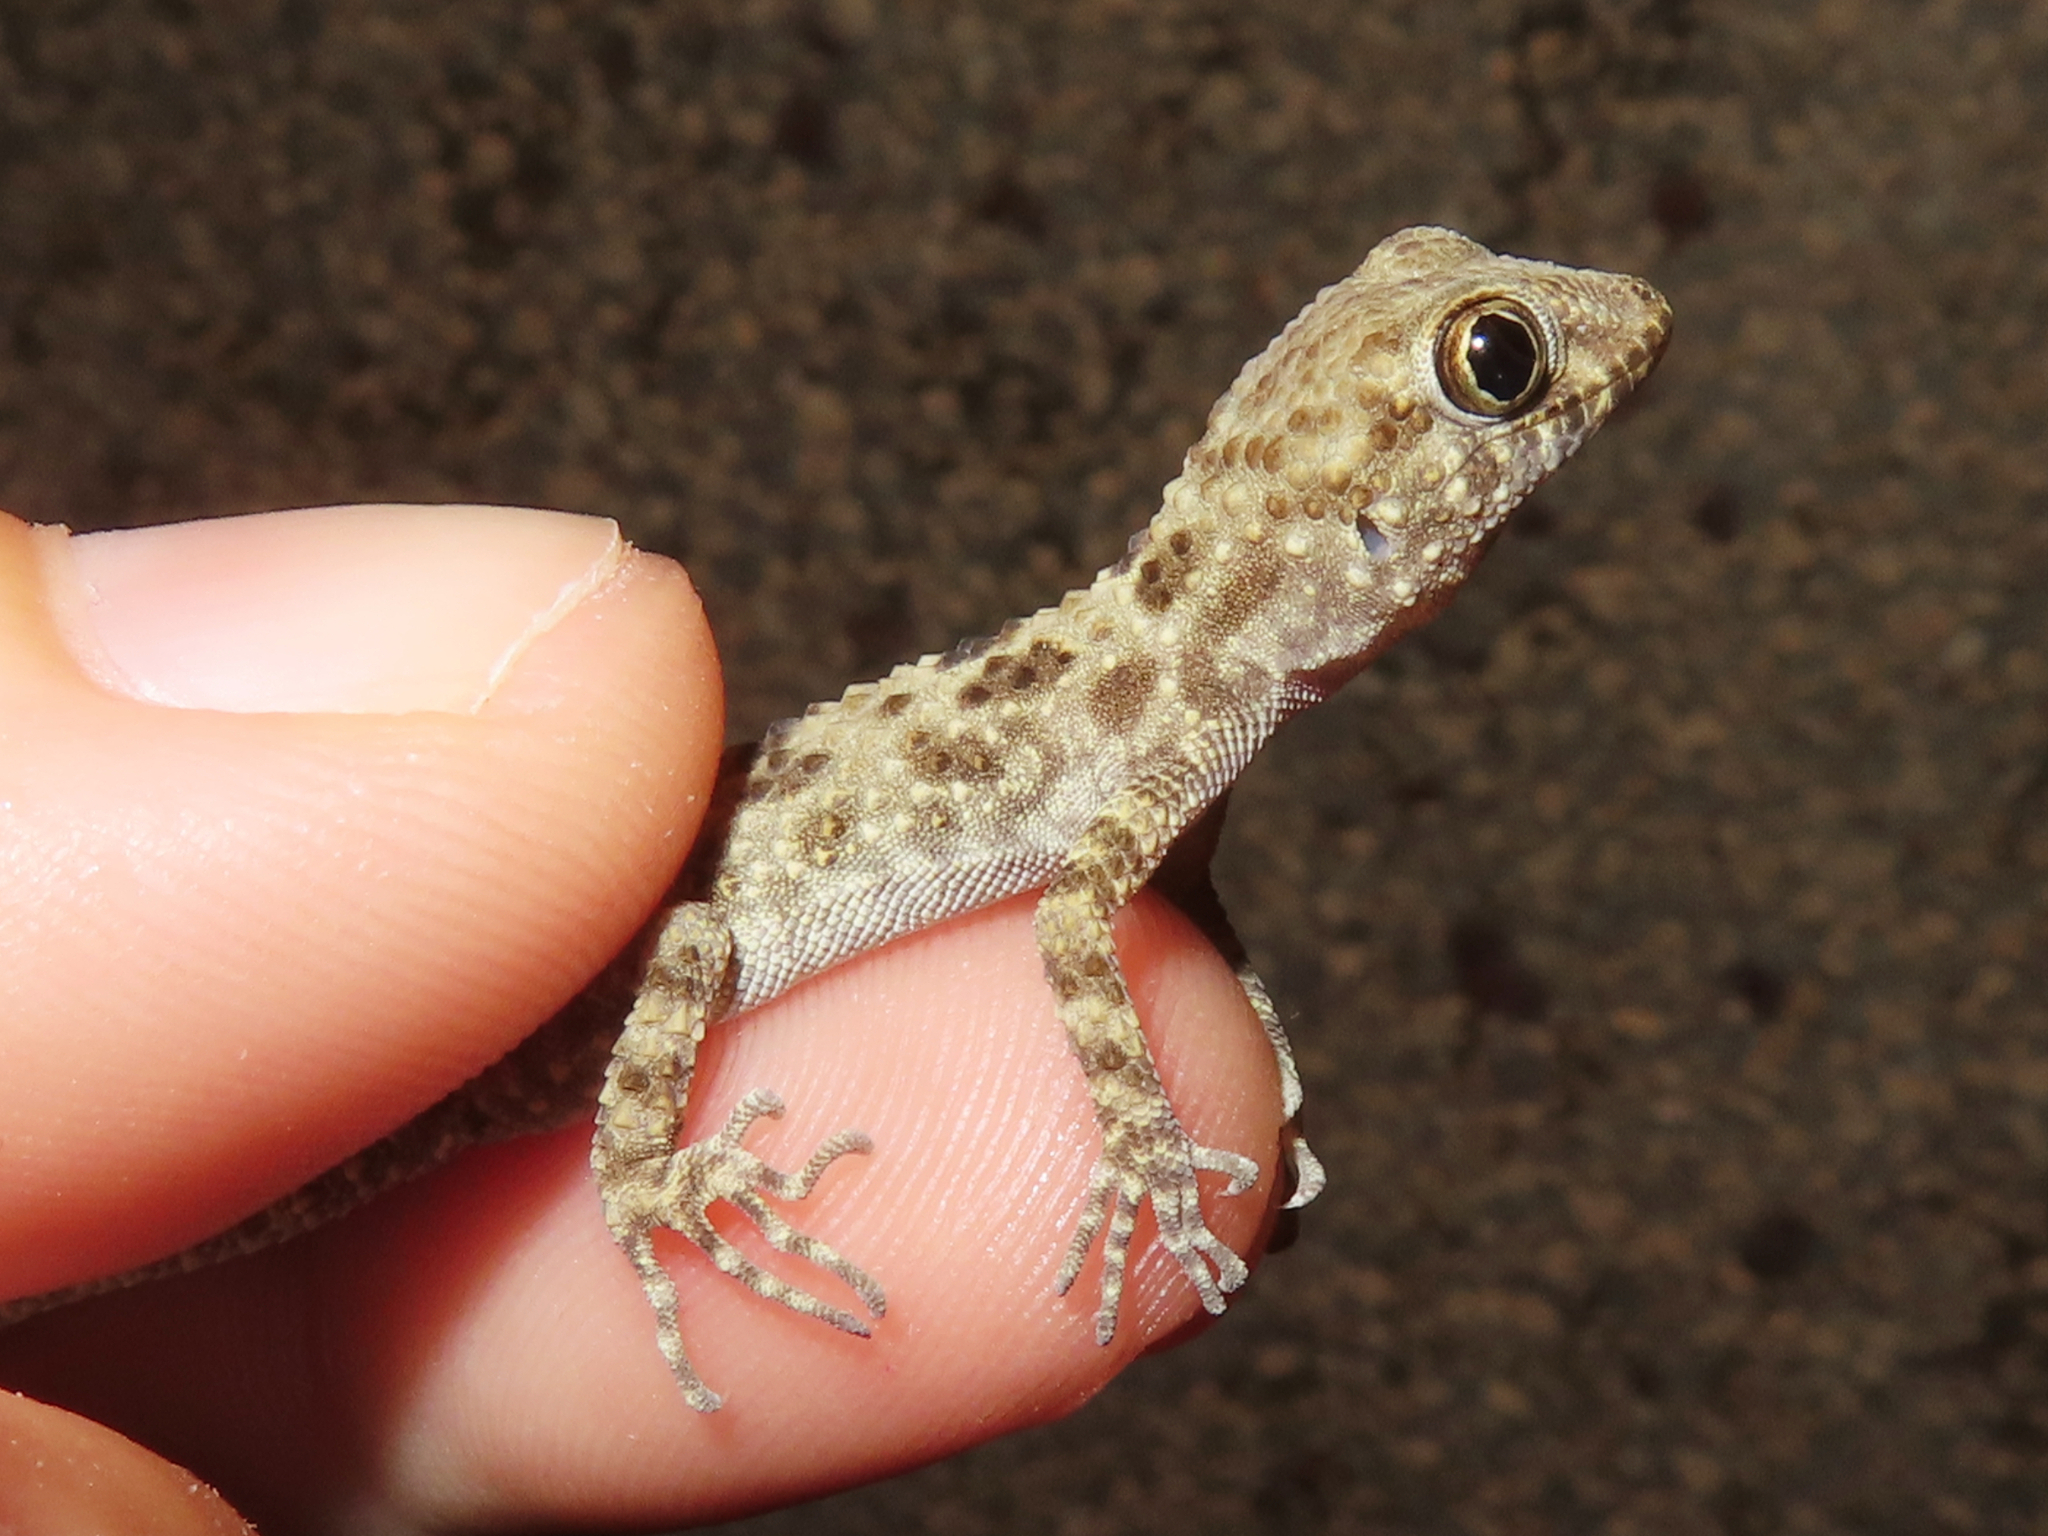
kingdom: Animalia
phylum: Chordata
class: Squamata
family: Gekkonidae
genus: Tenuidactylus
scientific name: Tenuidactylus caspius
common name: Caspian bent-toed gecko
